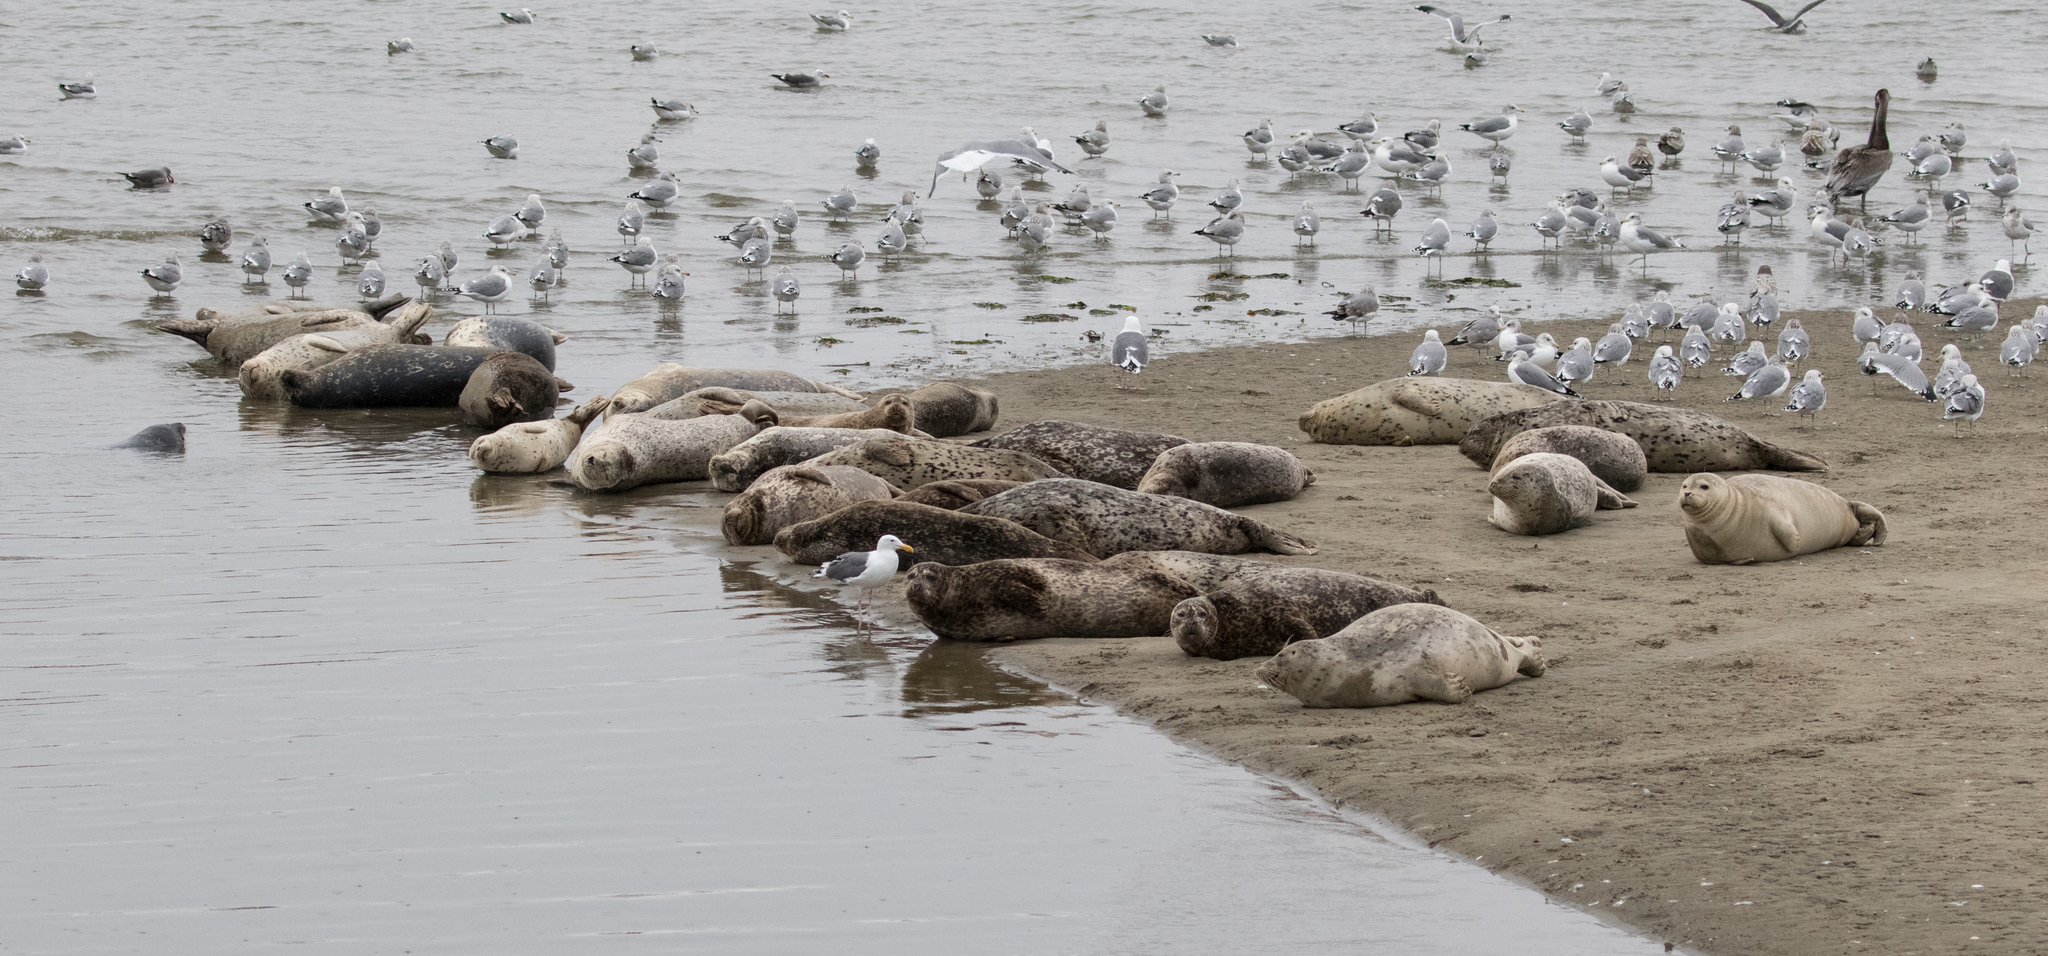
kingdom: Animalia
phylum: Chordata
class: Mammalia
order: Carnivora
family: Phocidae
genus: Phoca
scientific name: Phoca vitulina
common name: Harbor seal
